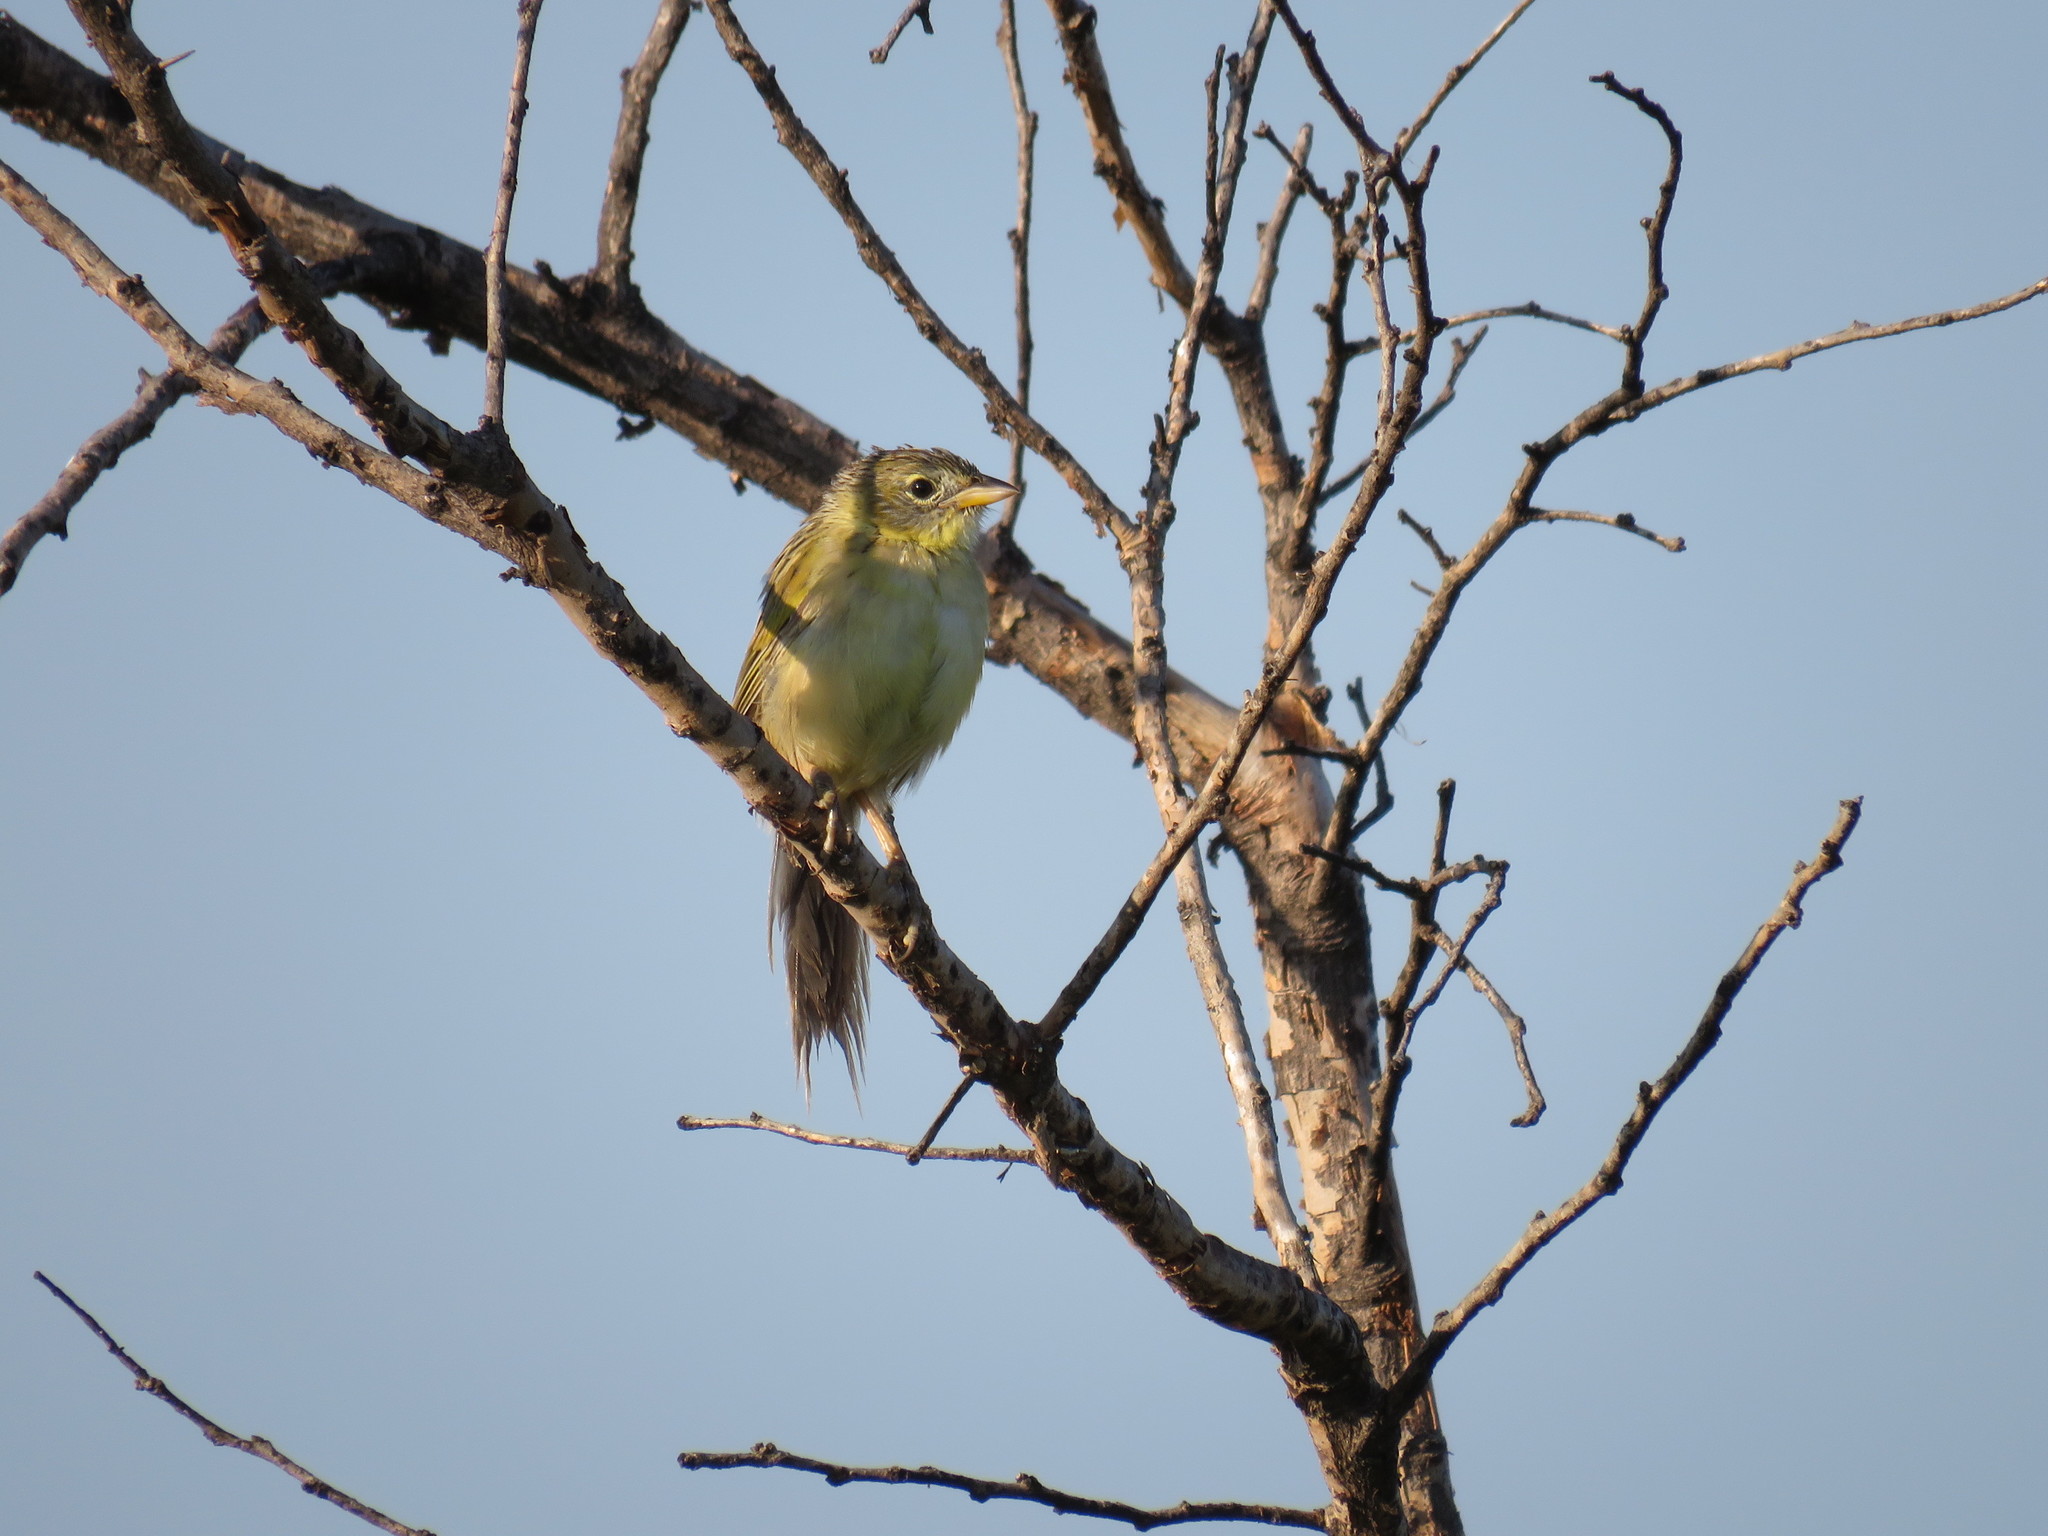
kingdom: Animalia
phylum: Chordata
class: Aves
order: Passeriformes
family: Thraupidae
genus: Emberizoides
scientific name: Emberizoides ypiranganus
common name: Lesser grass finch
